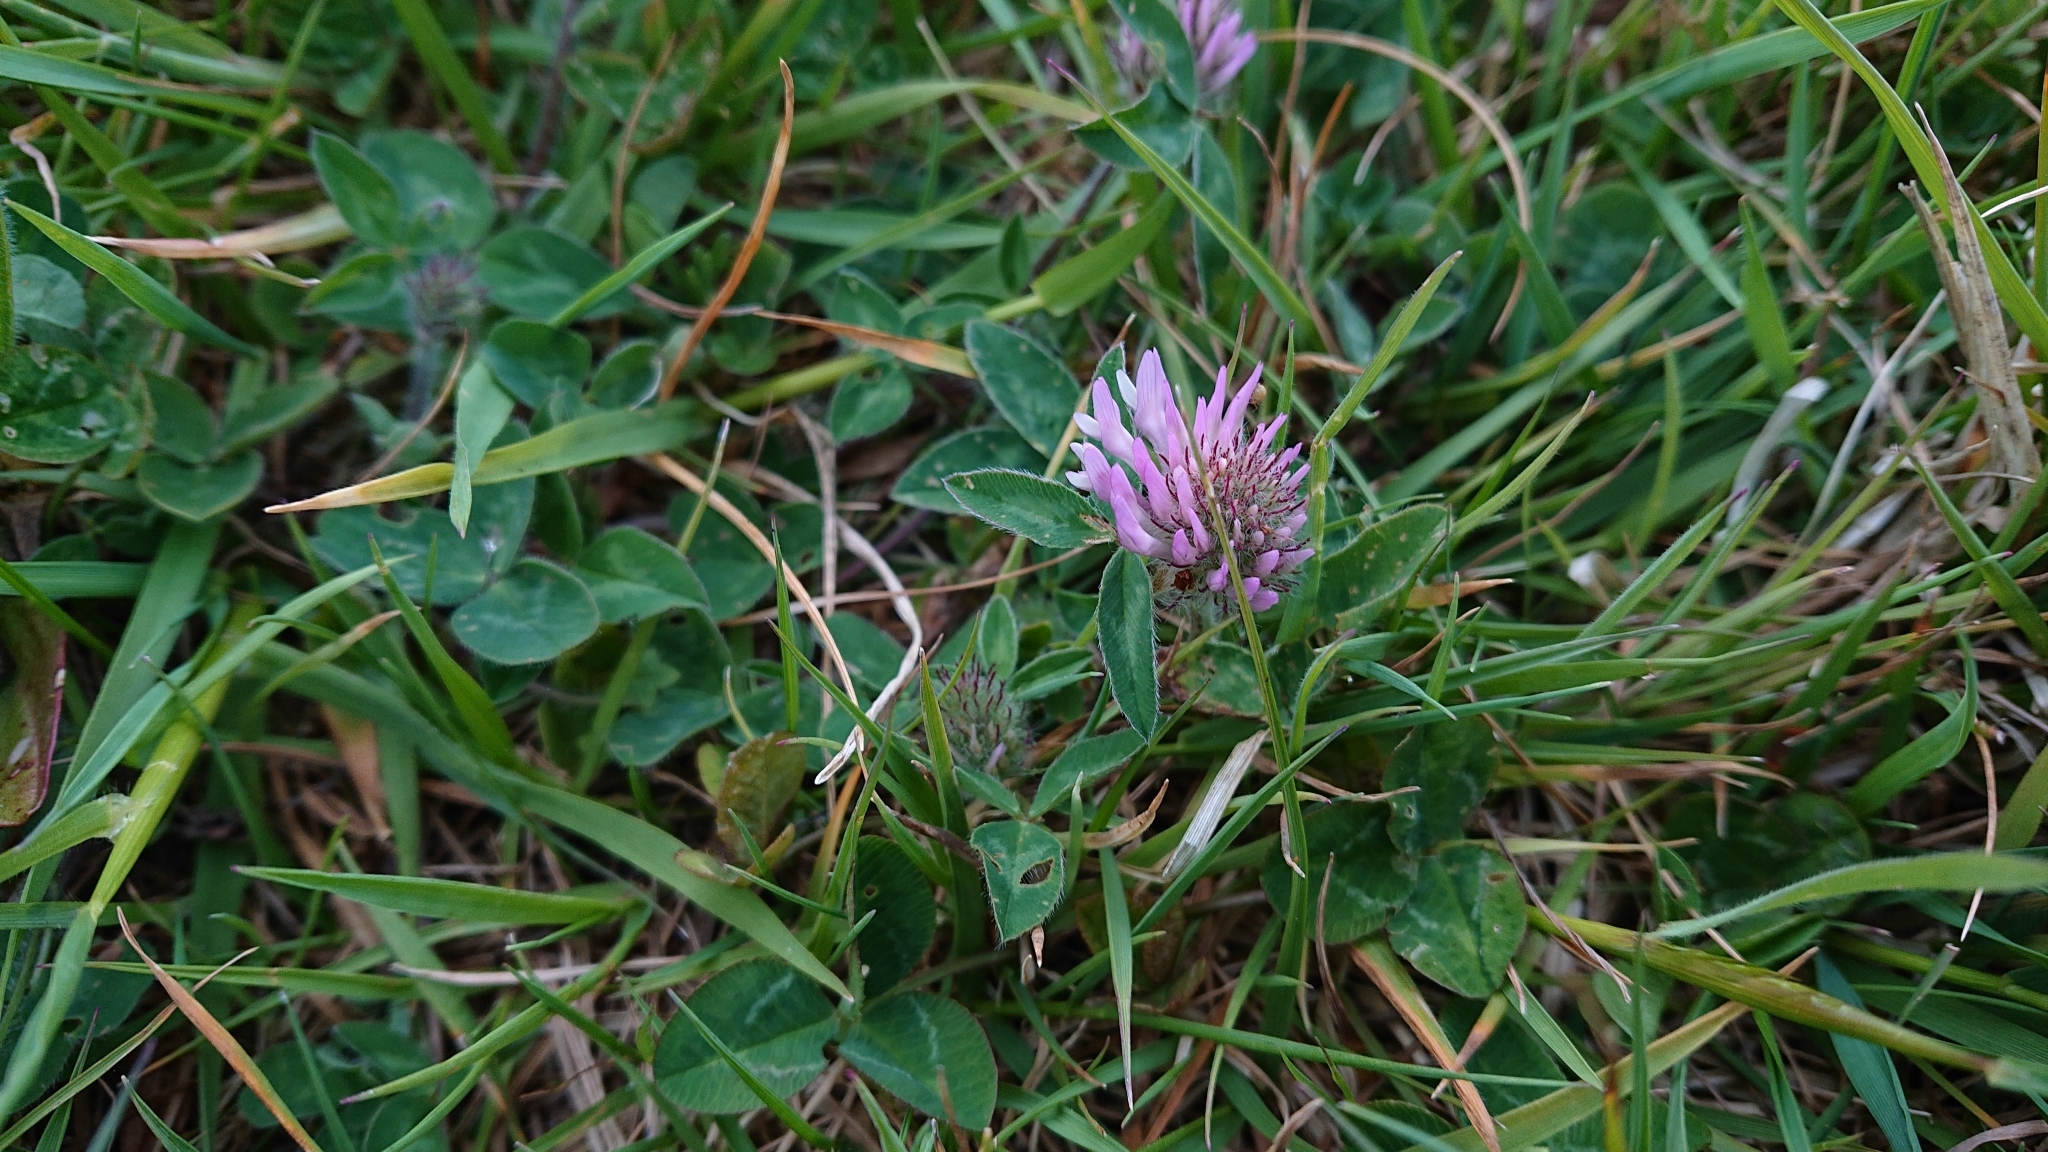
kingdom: Plantae
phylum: Tracheophyta
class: Magnoliopsida
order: Fabales
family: Fabaceae
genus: Trifolium
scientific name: Trifolium pratense
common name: Red clover
